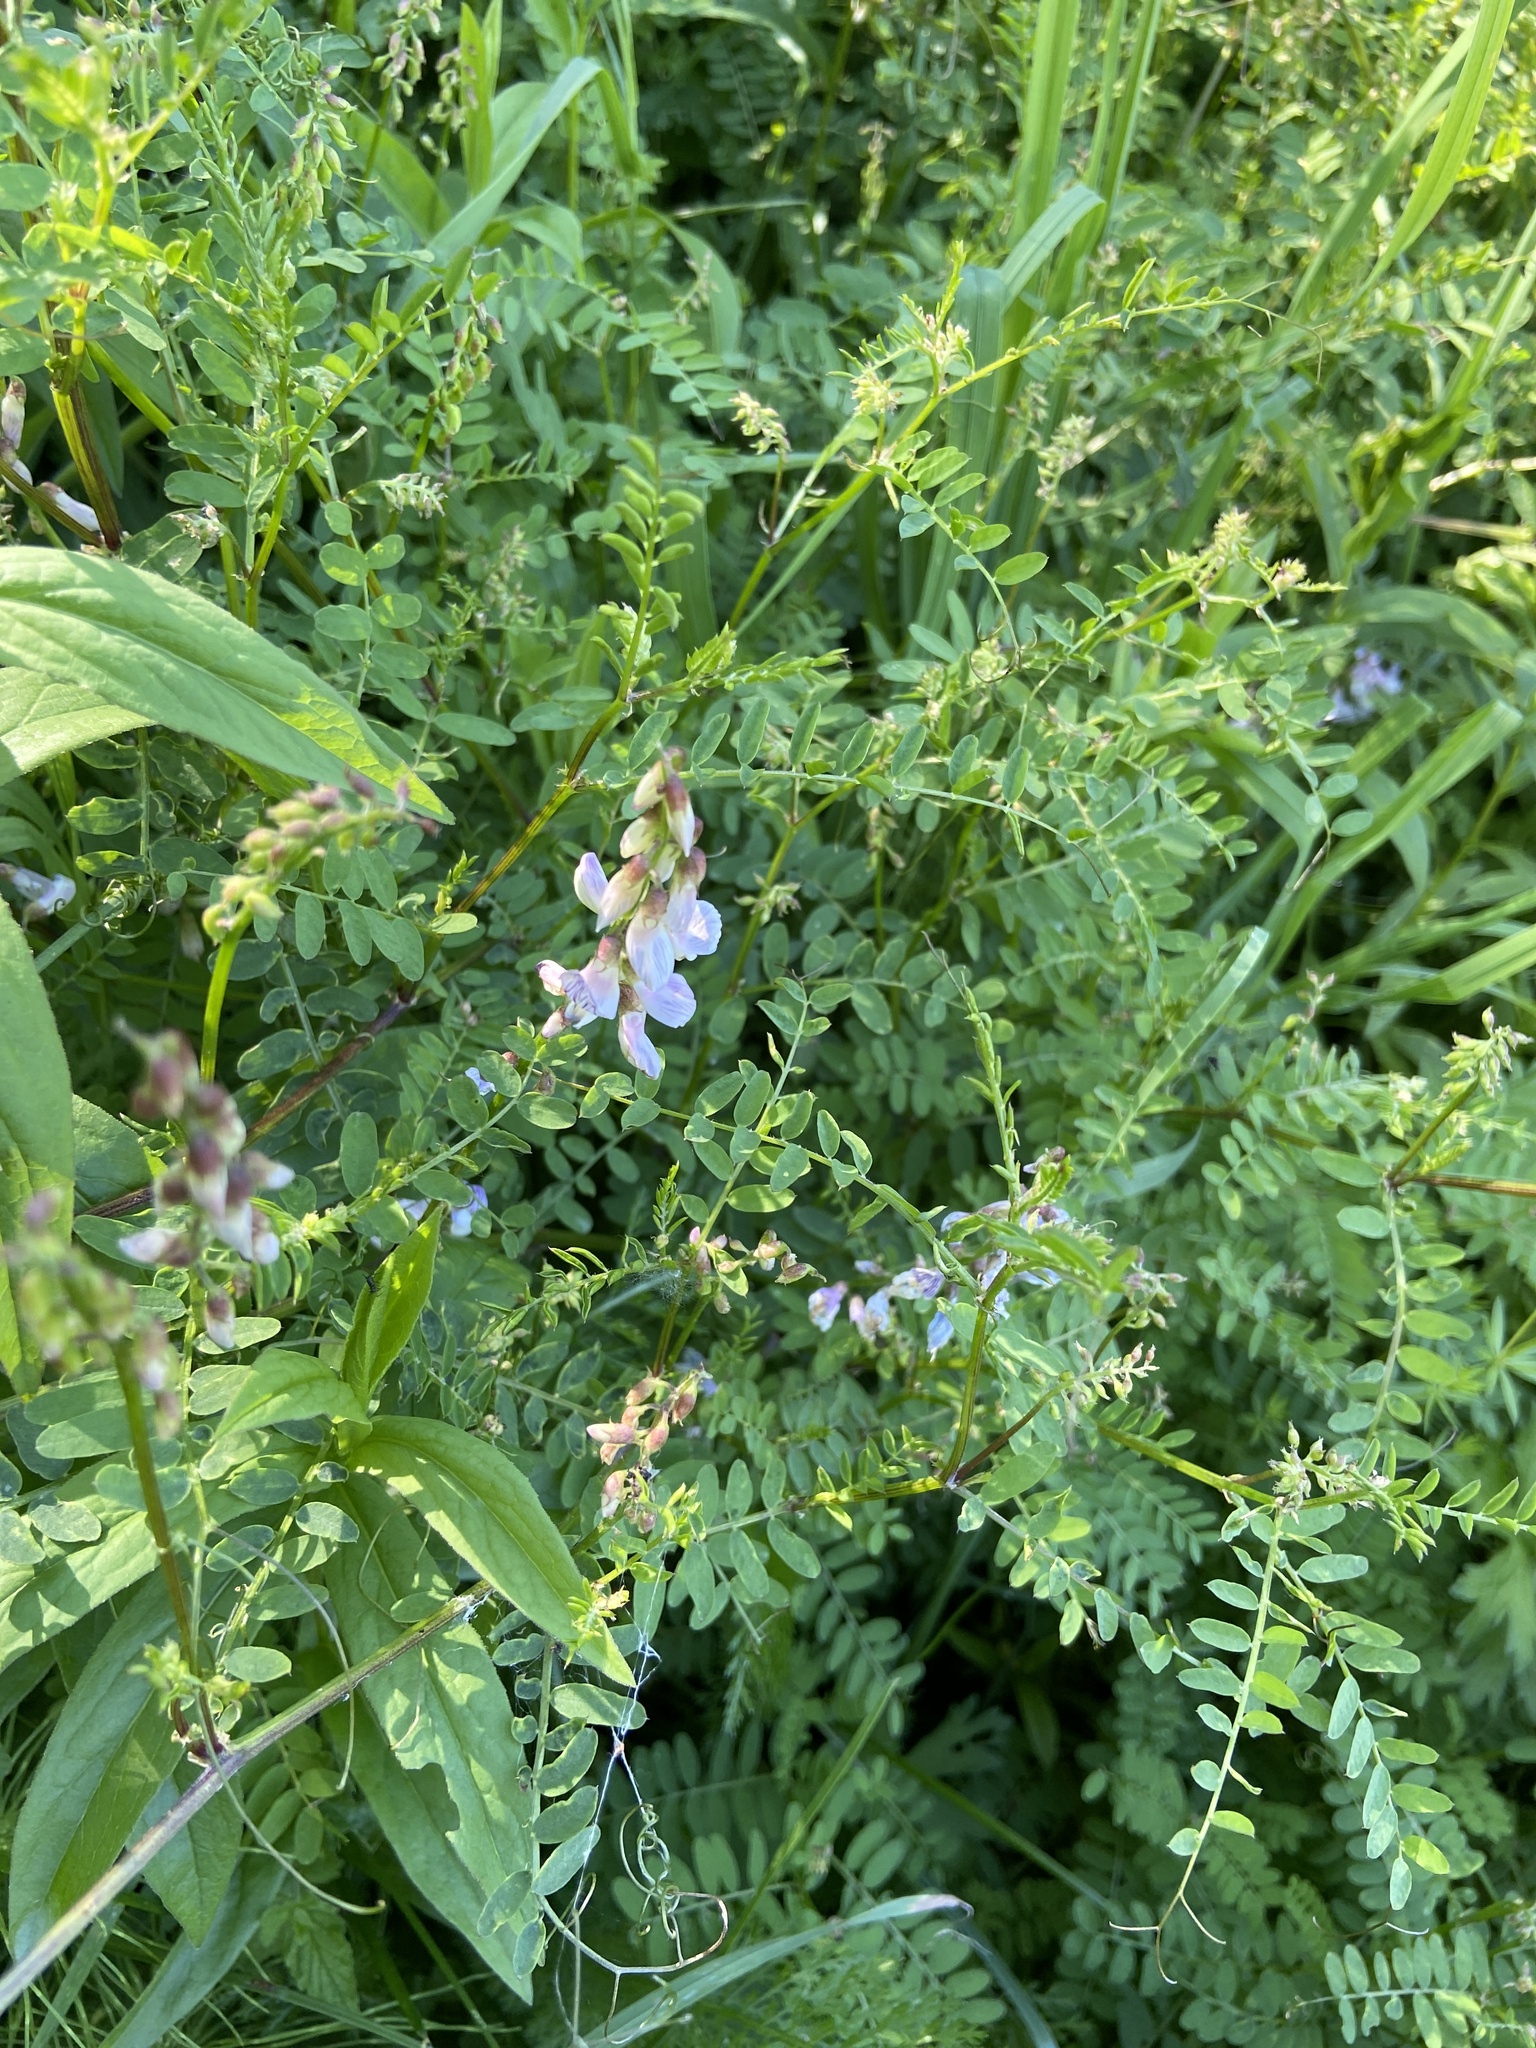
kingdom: Plantae
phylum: Tracheophyta
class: Magnoliopsida
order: Fabales
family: Fabaceae
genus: Vicia
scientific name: Vicia sylvatica
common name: Wood vetch
